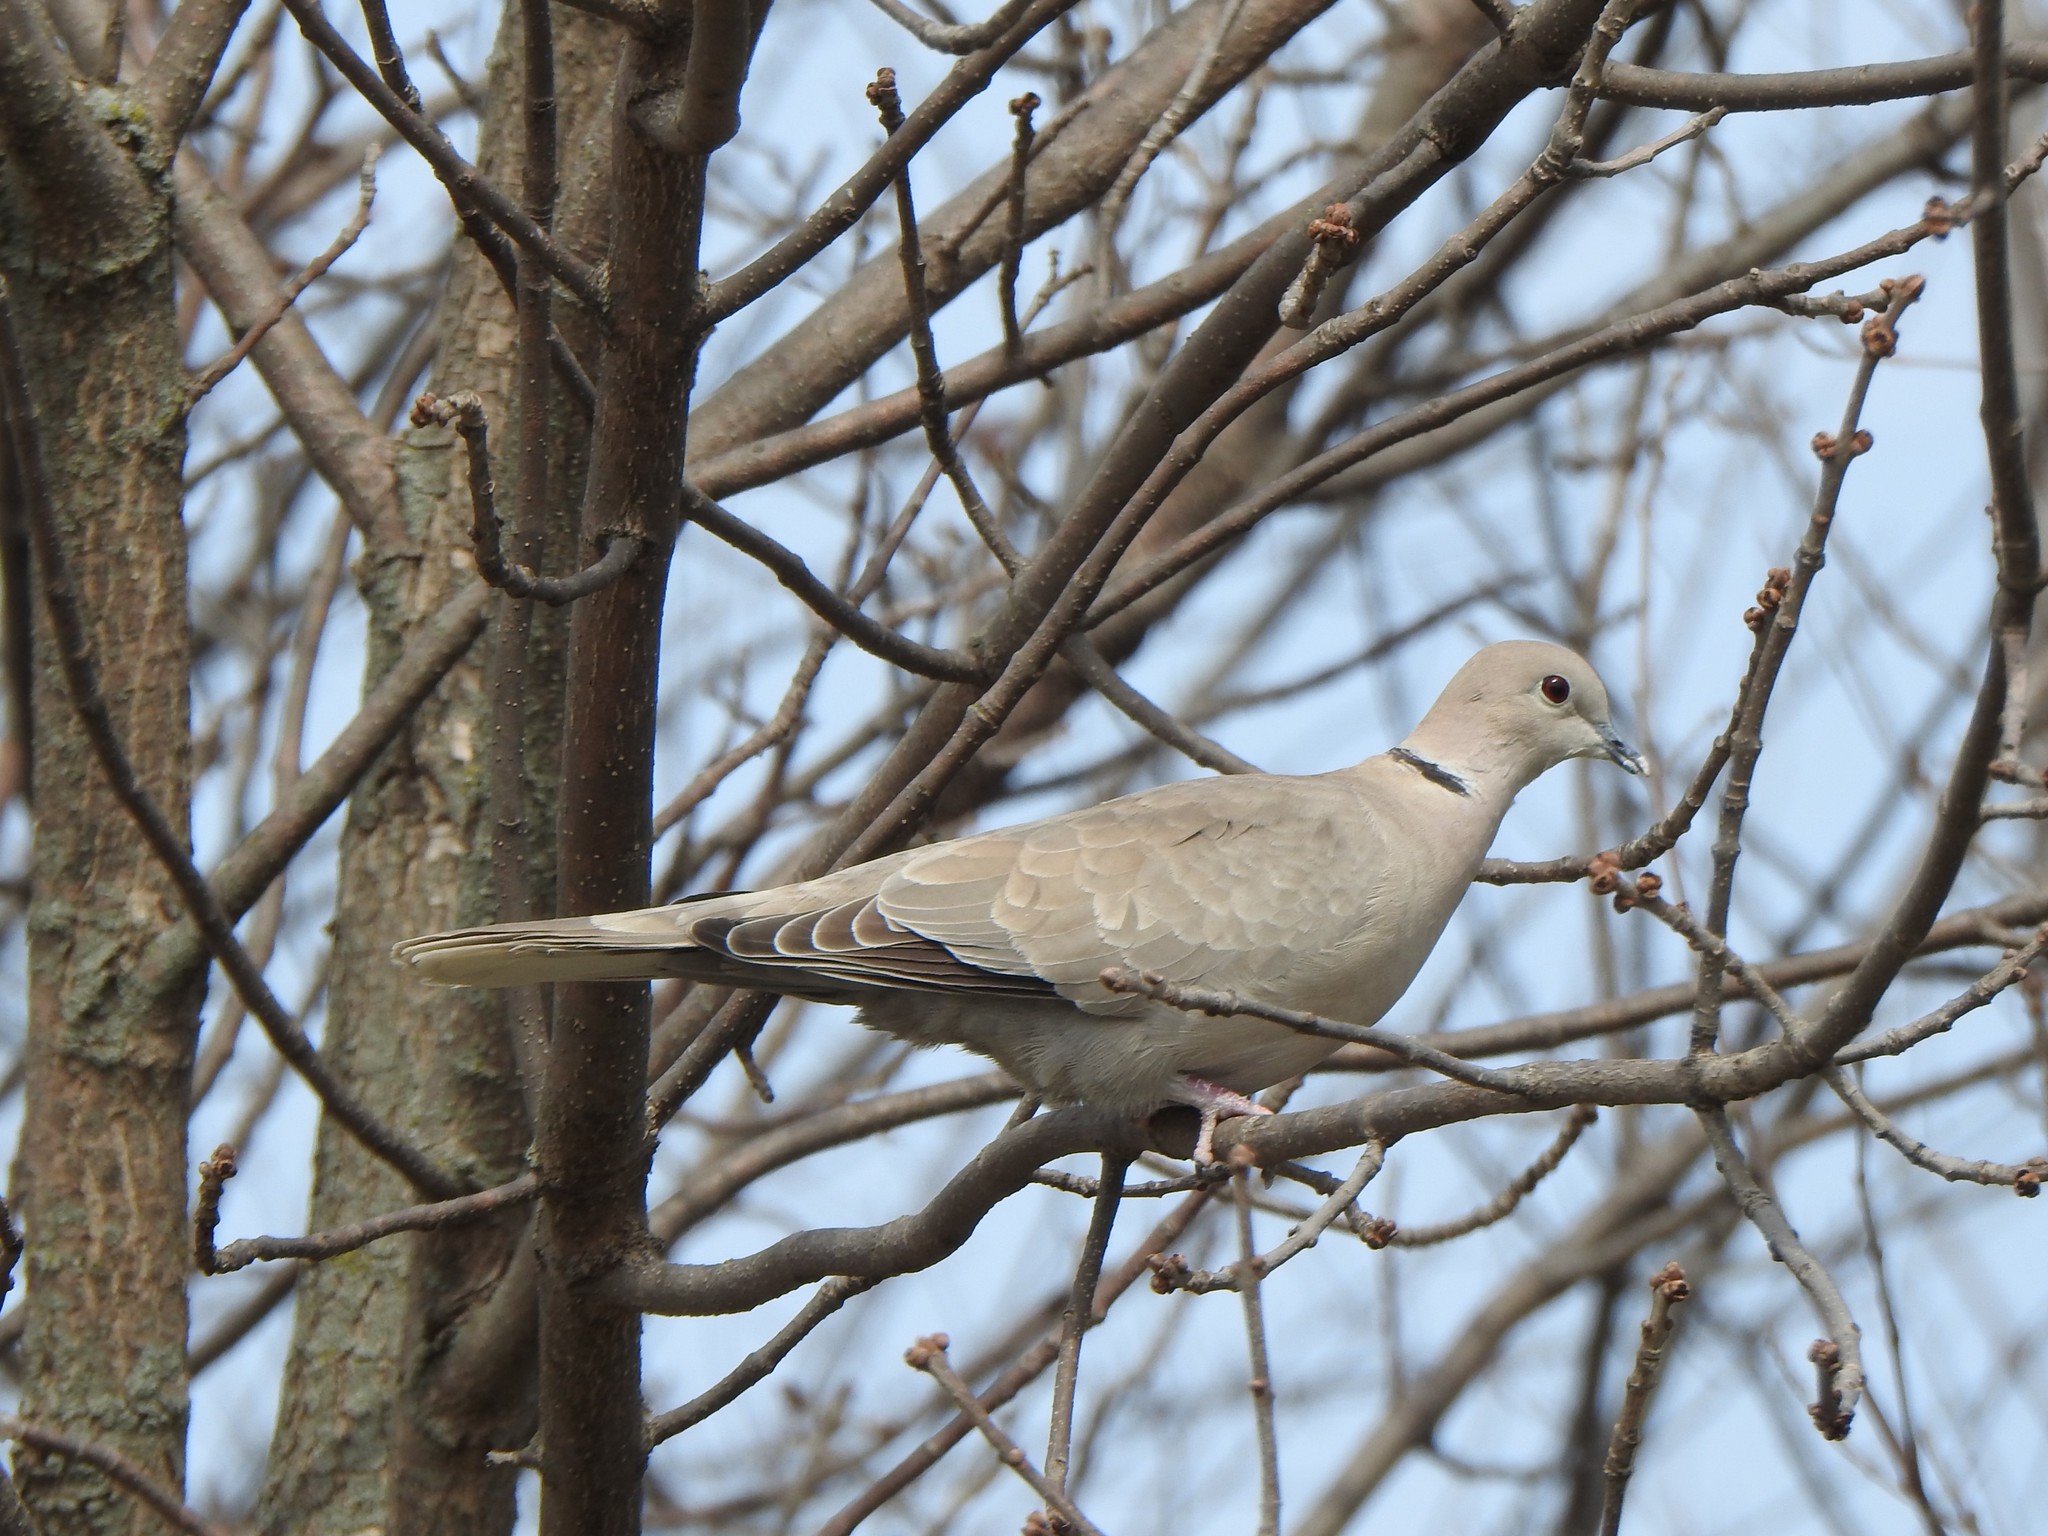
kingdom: Animalia
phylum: Chordata
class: Aves
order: Columbiformes
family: Columbidae
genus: Streptopelia
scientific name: Streptopelia decaocto
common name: Eurasian collared dove
